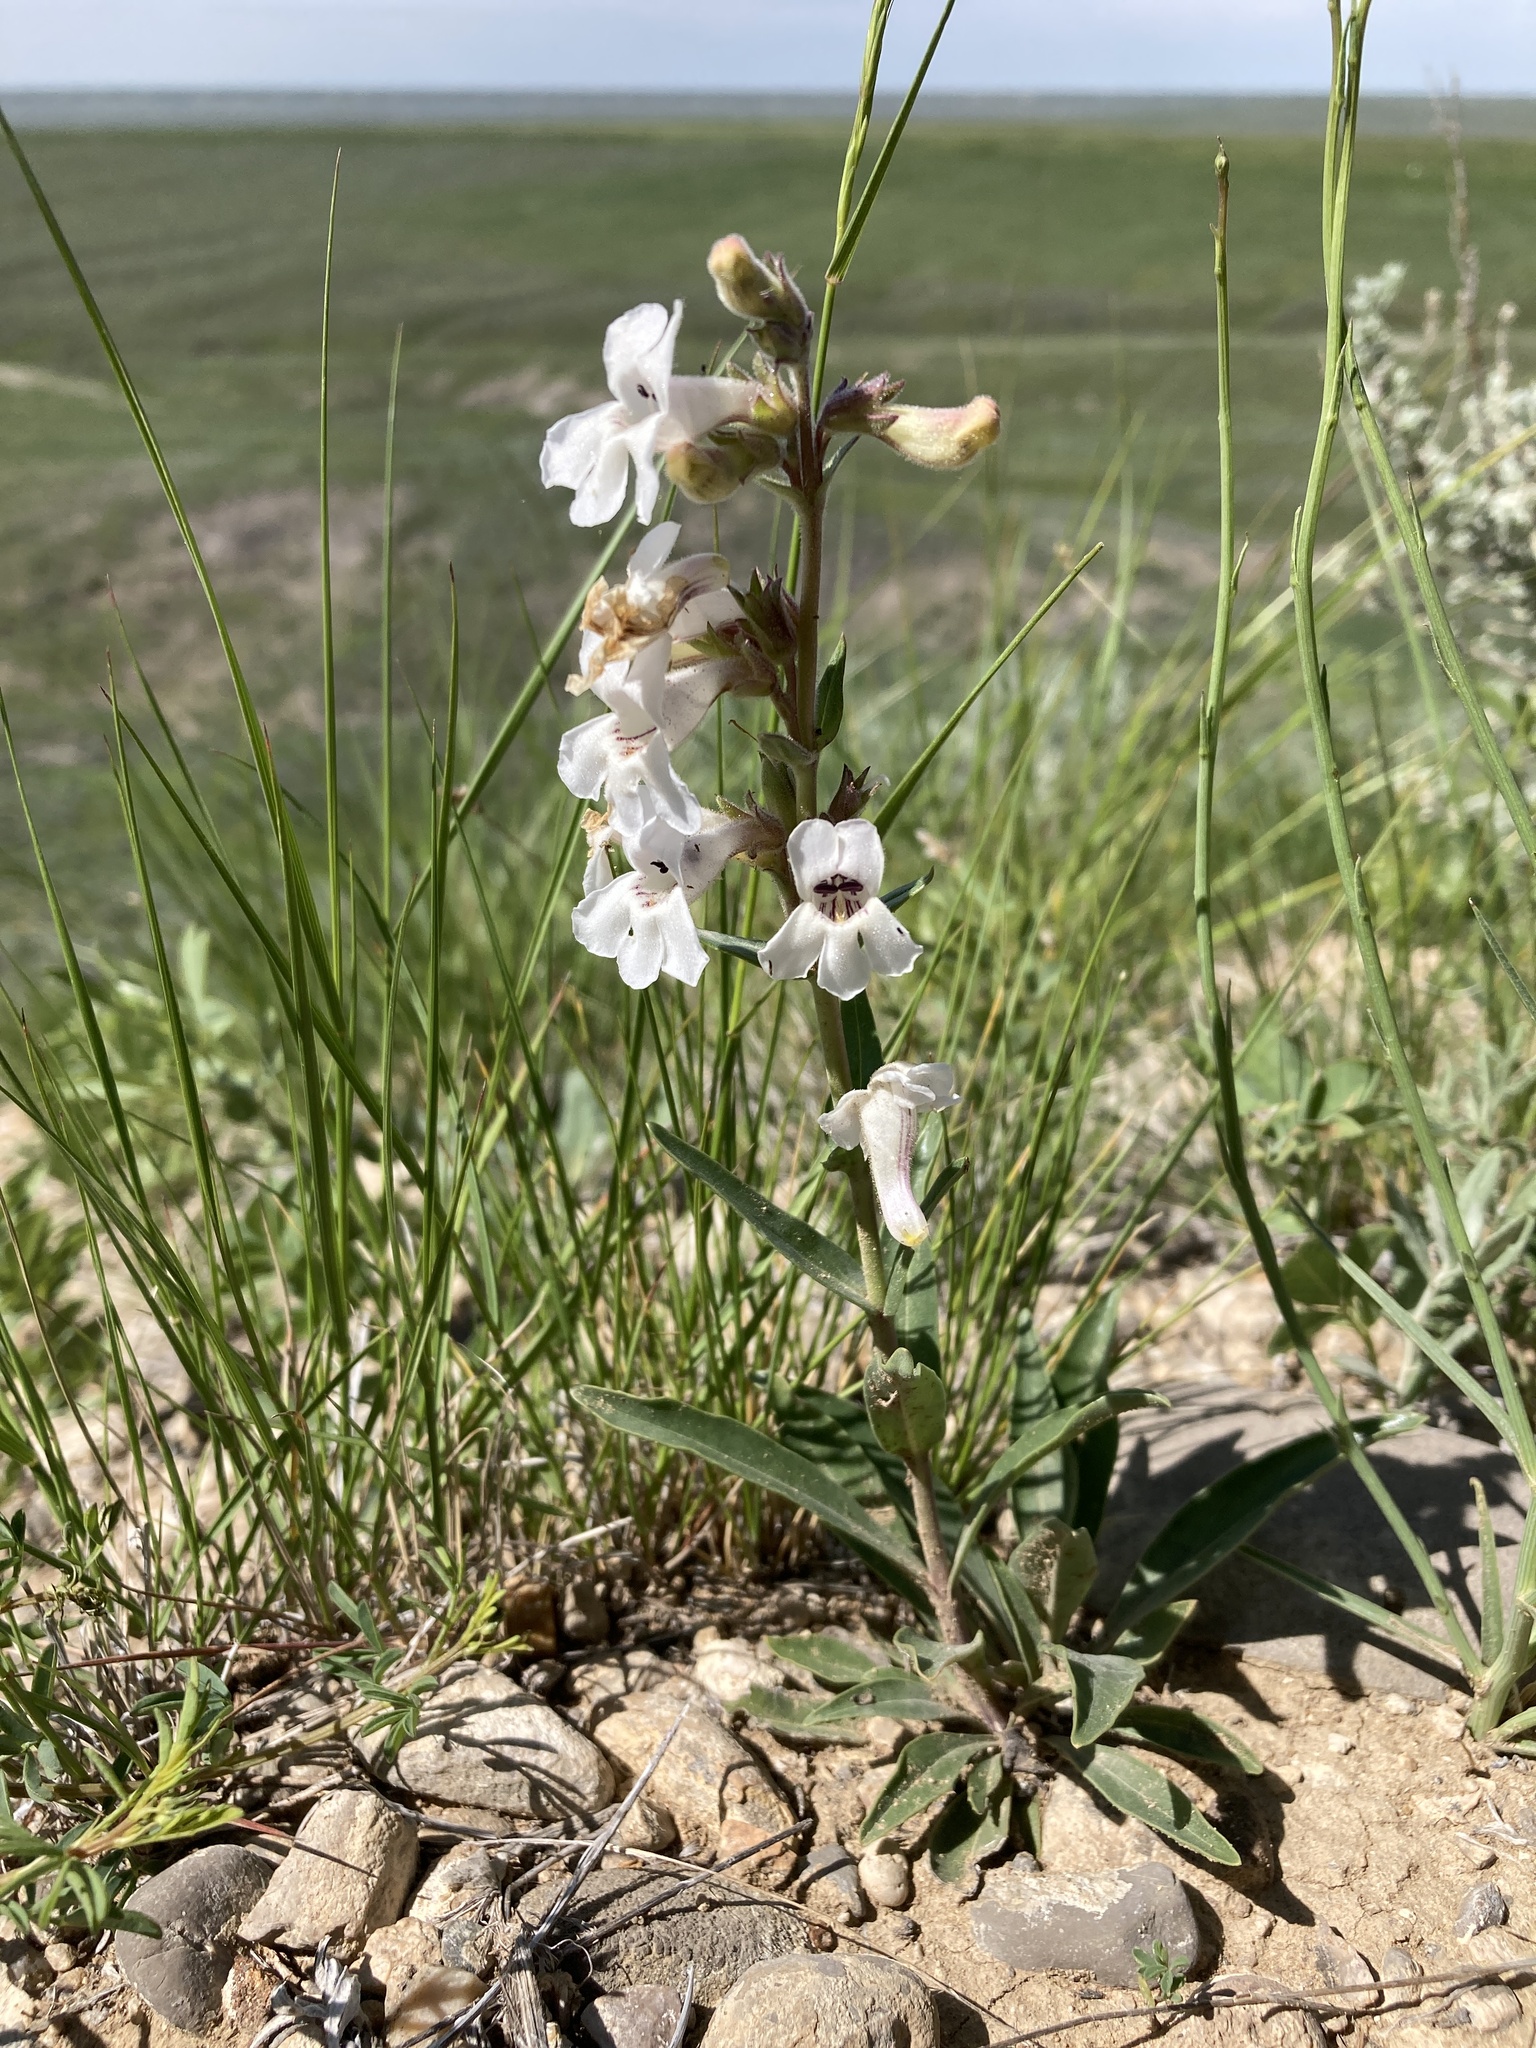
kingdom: Plantae
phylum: Tracheophyta
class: Magnoliopsida
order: Lamiales
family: Plantaginaceae
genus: Penstemon
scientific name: Penstemon albidus
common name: White beardtongue
